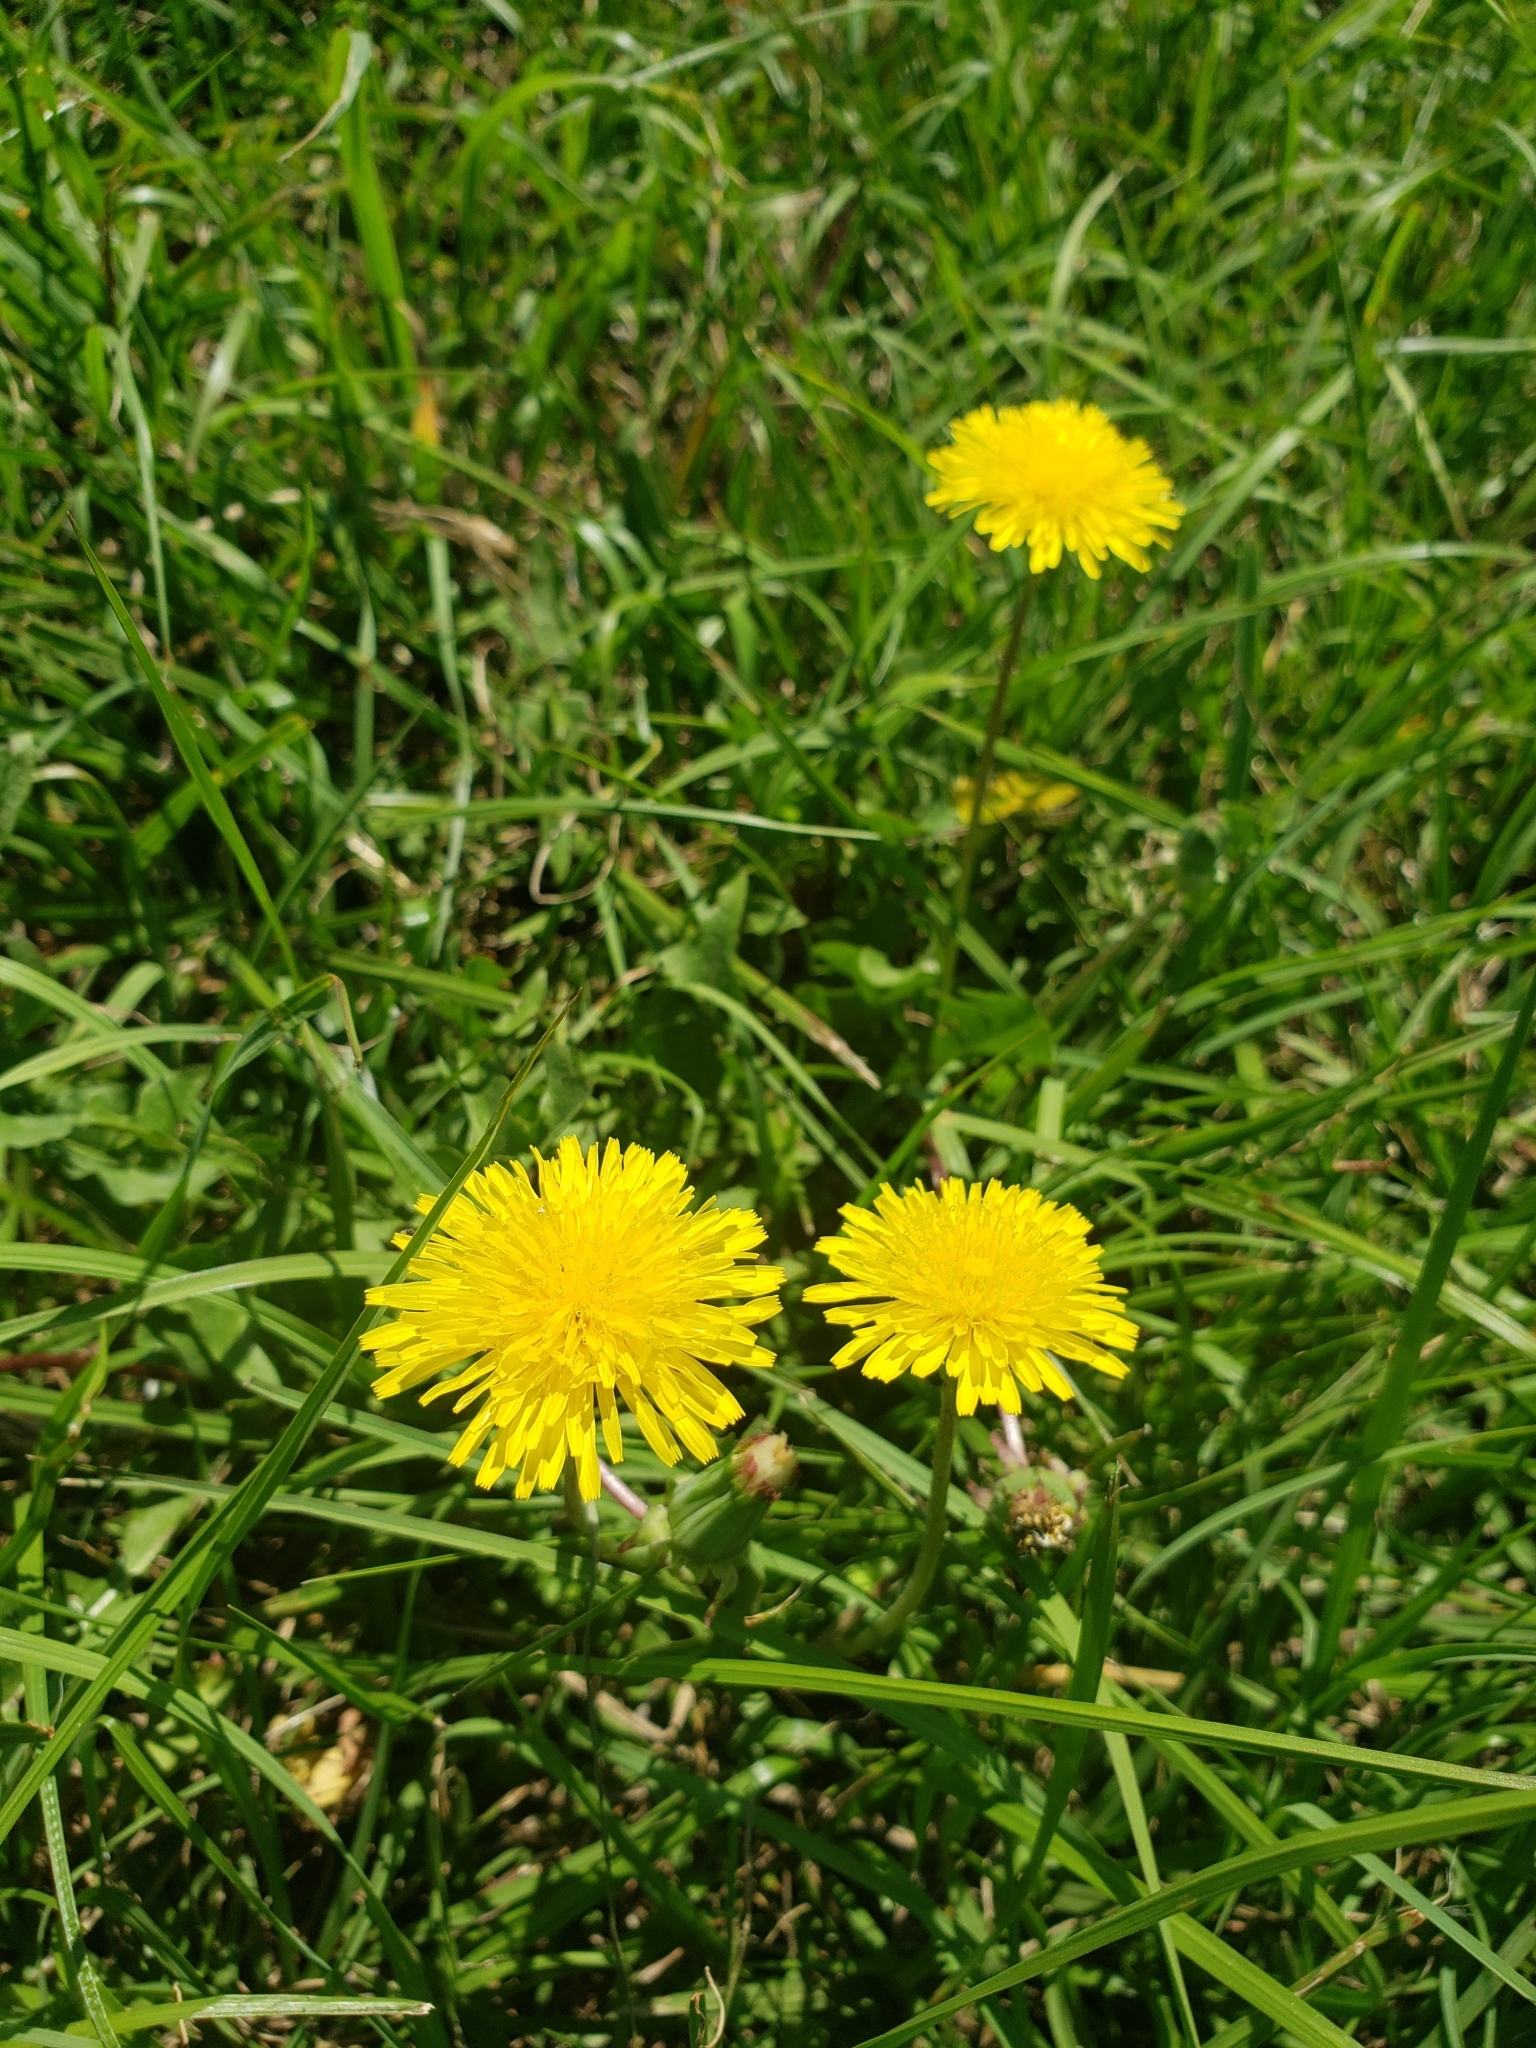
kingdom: Plantae
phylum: Tracheophyta
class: Magnoliopsida
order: Asterales
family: Asteraceae
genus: Taraxacum
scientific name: Taraxacum officinale
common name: Common dandelion
